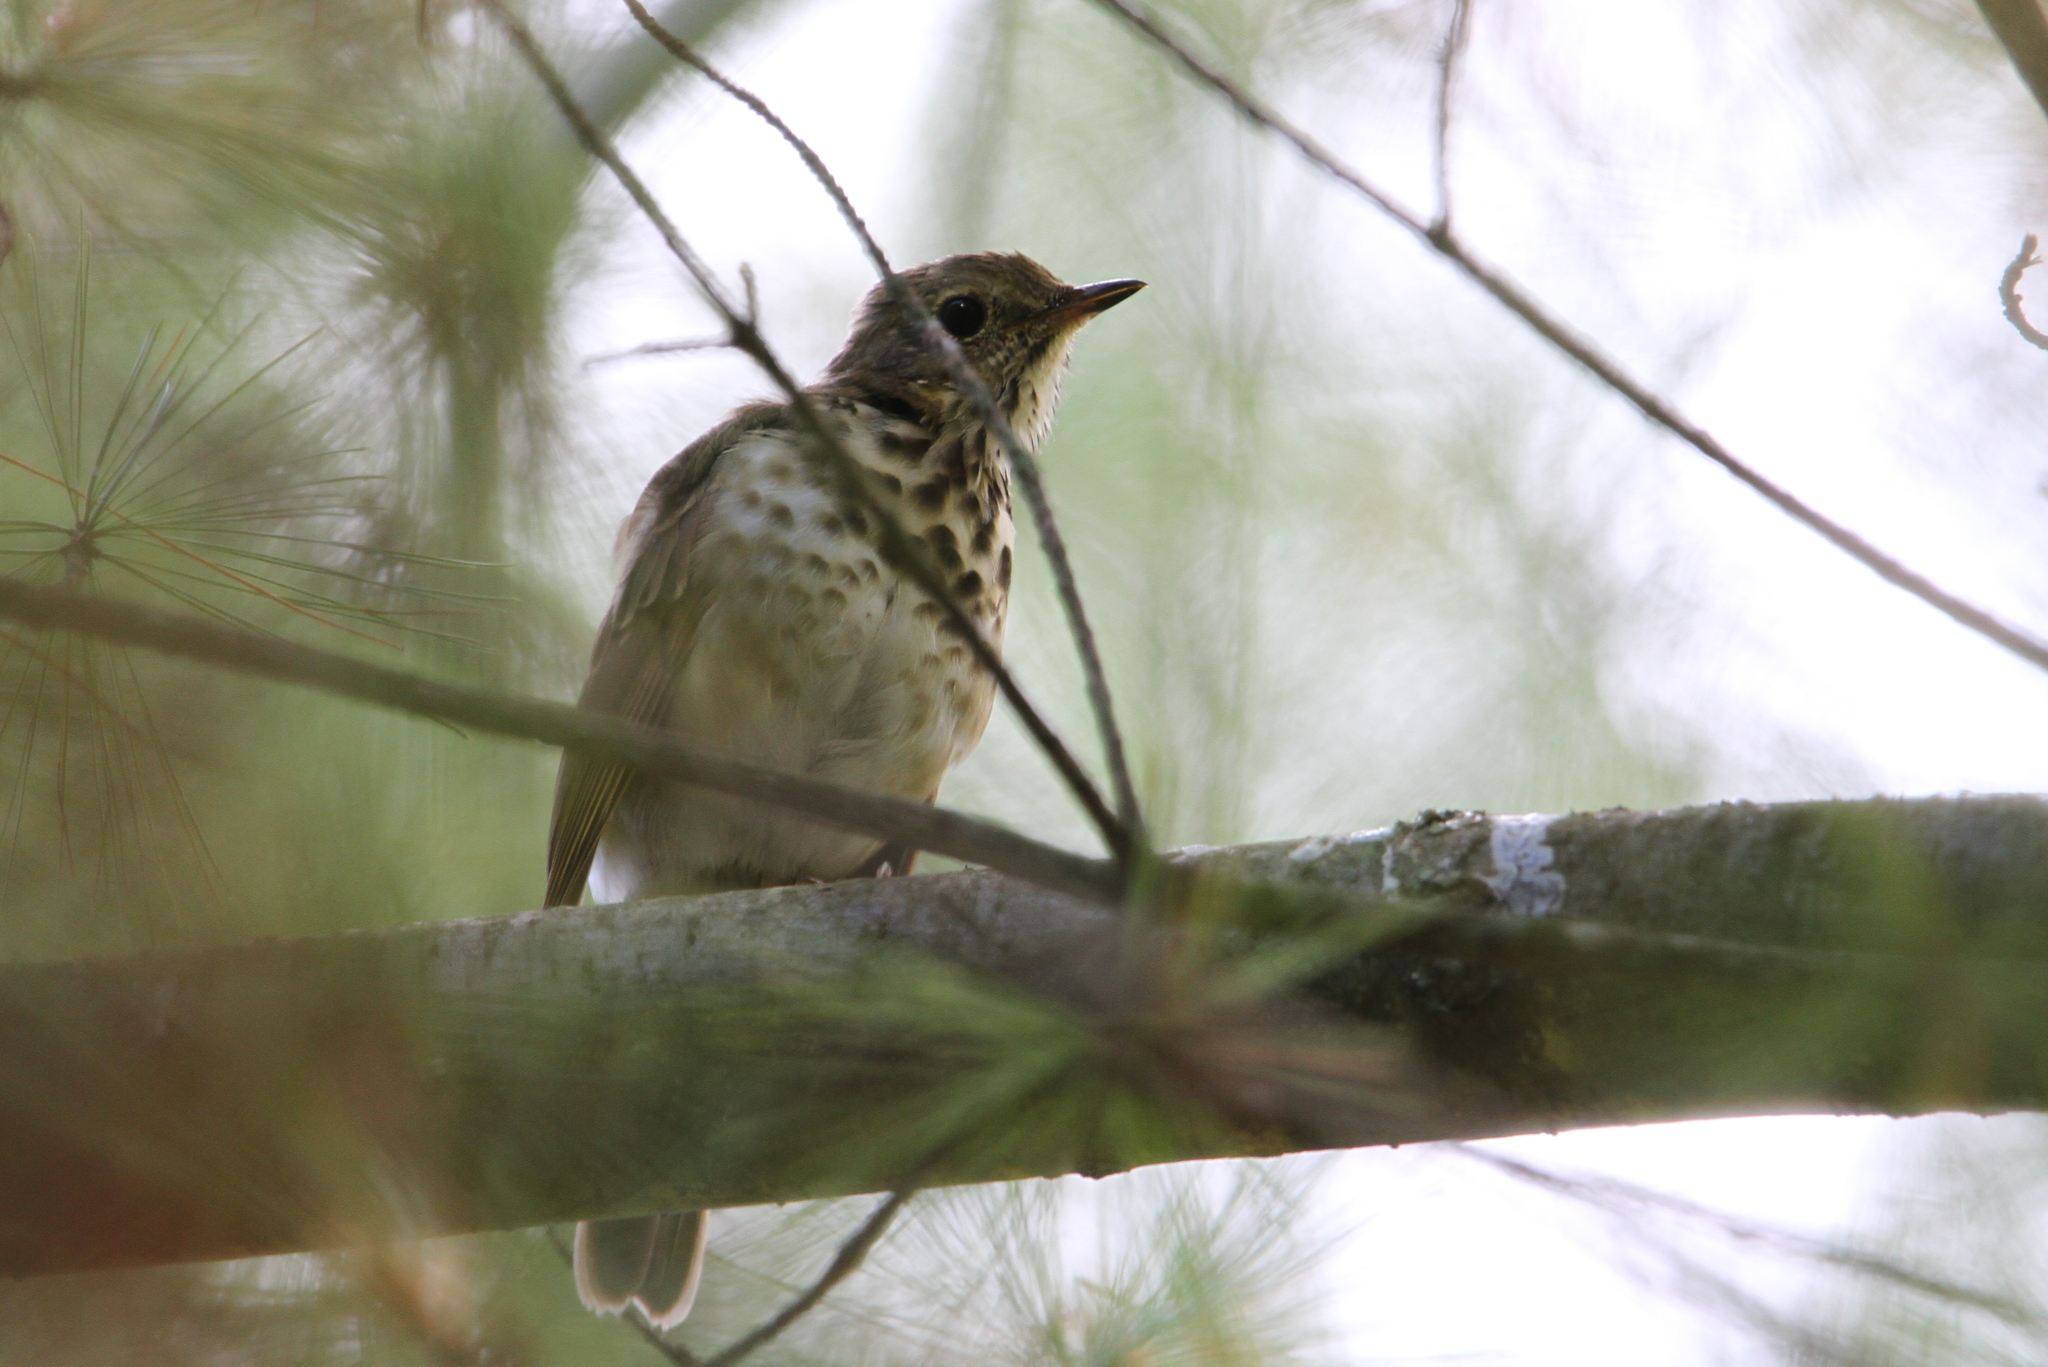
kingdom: Animalia
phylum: Chordata
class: Aves
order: Passeriformes
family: Turdidae
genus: Catharus
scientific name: Catharus ustulatus
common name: Swainson's thrush
